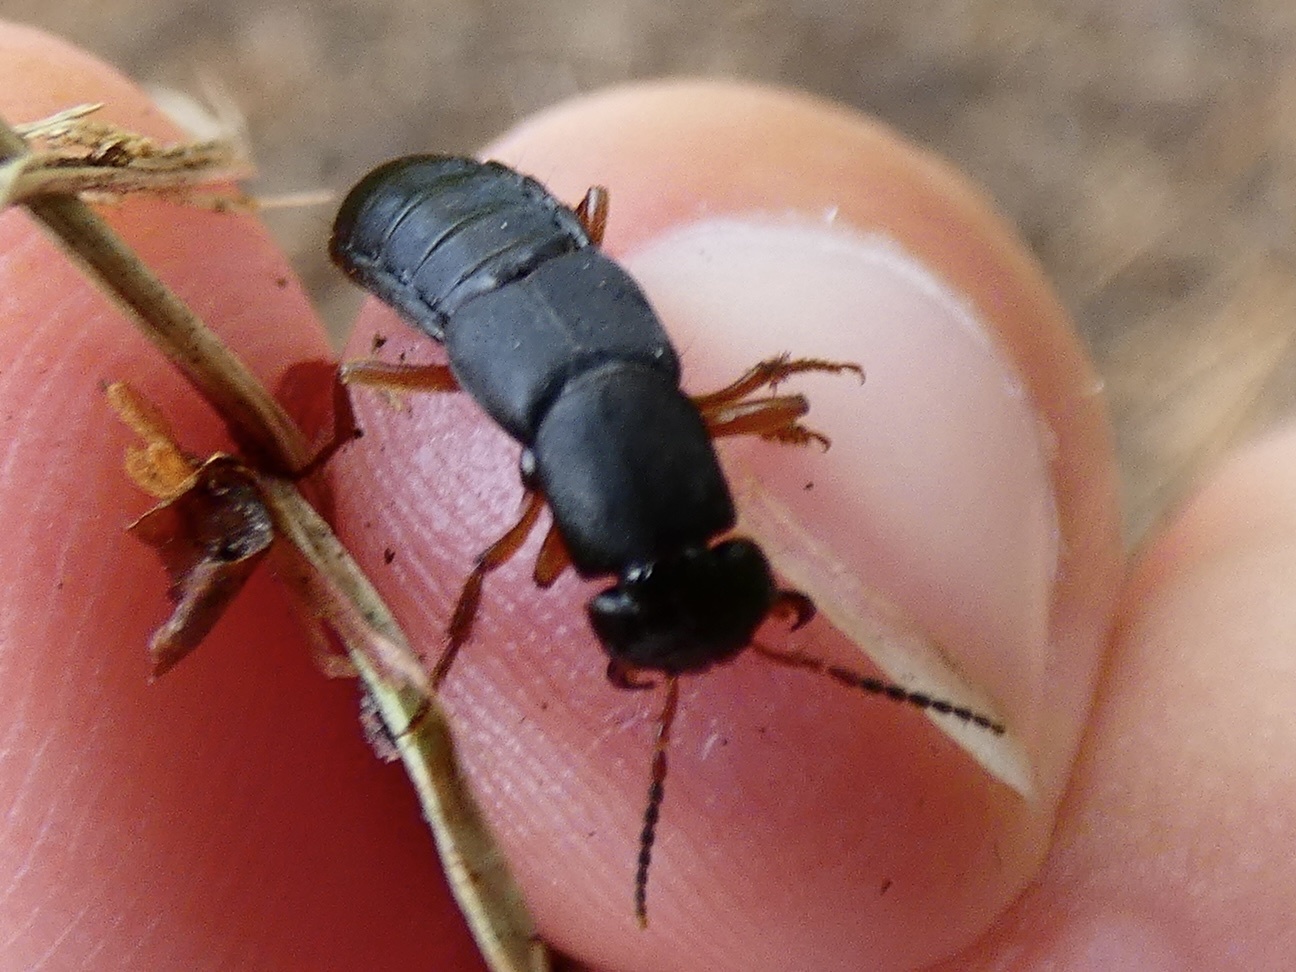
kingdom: Animalia
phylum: Arthropoda
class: Insecta
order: Coleoptera
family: Staphylinidae
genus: Tasgius
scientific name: Tasgius morsitans
